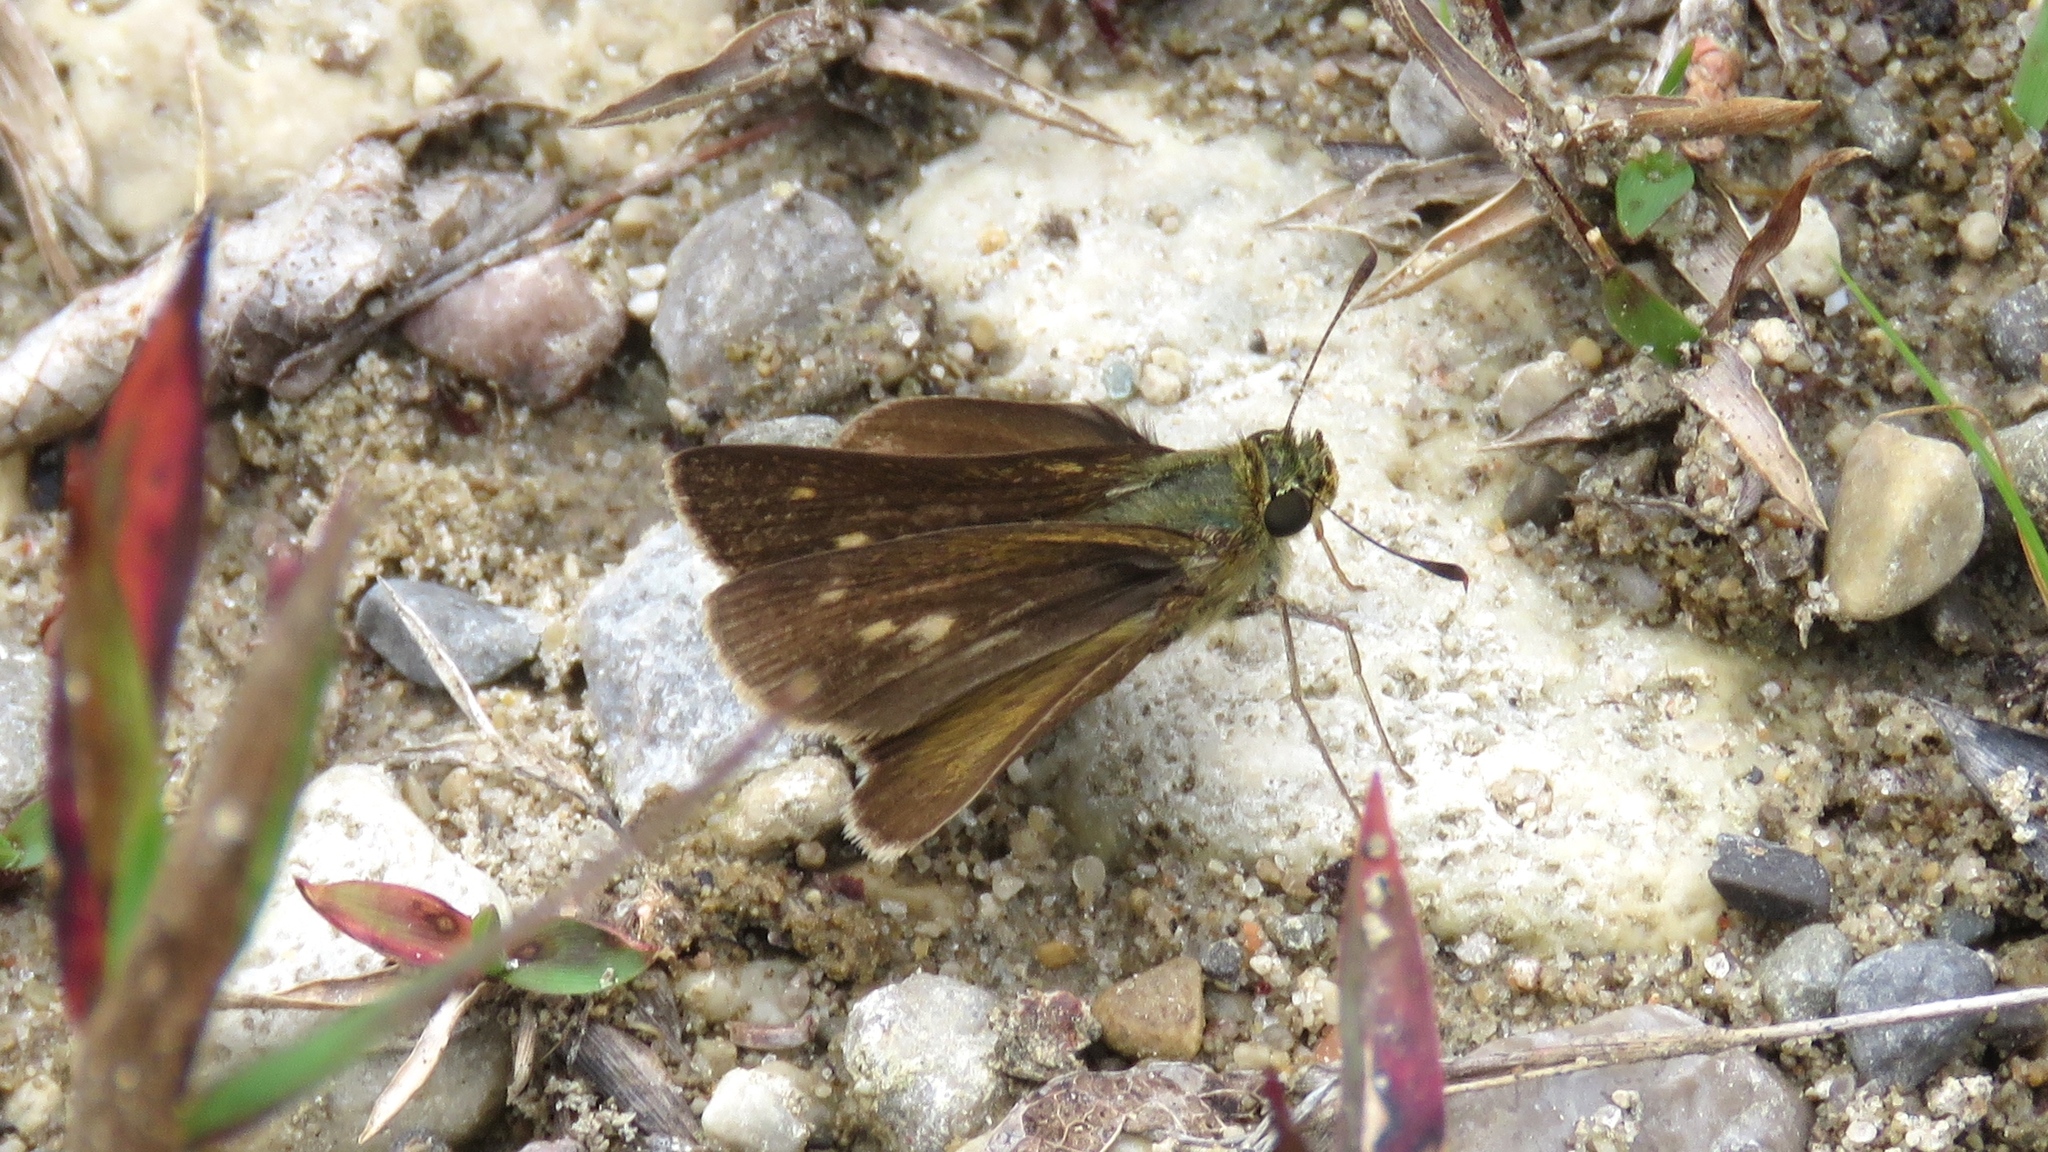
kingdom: Animalia
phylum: Arthropoda
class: Insecta
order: Lepidoptera
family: Hesperiidae
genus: Polites
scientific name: Polites egeremet
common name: Northern broken-dash
